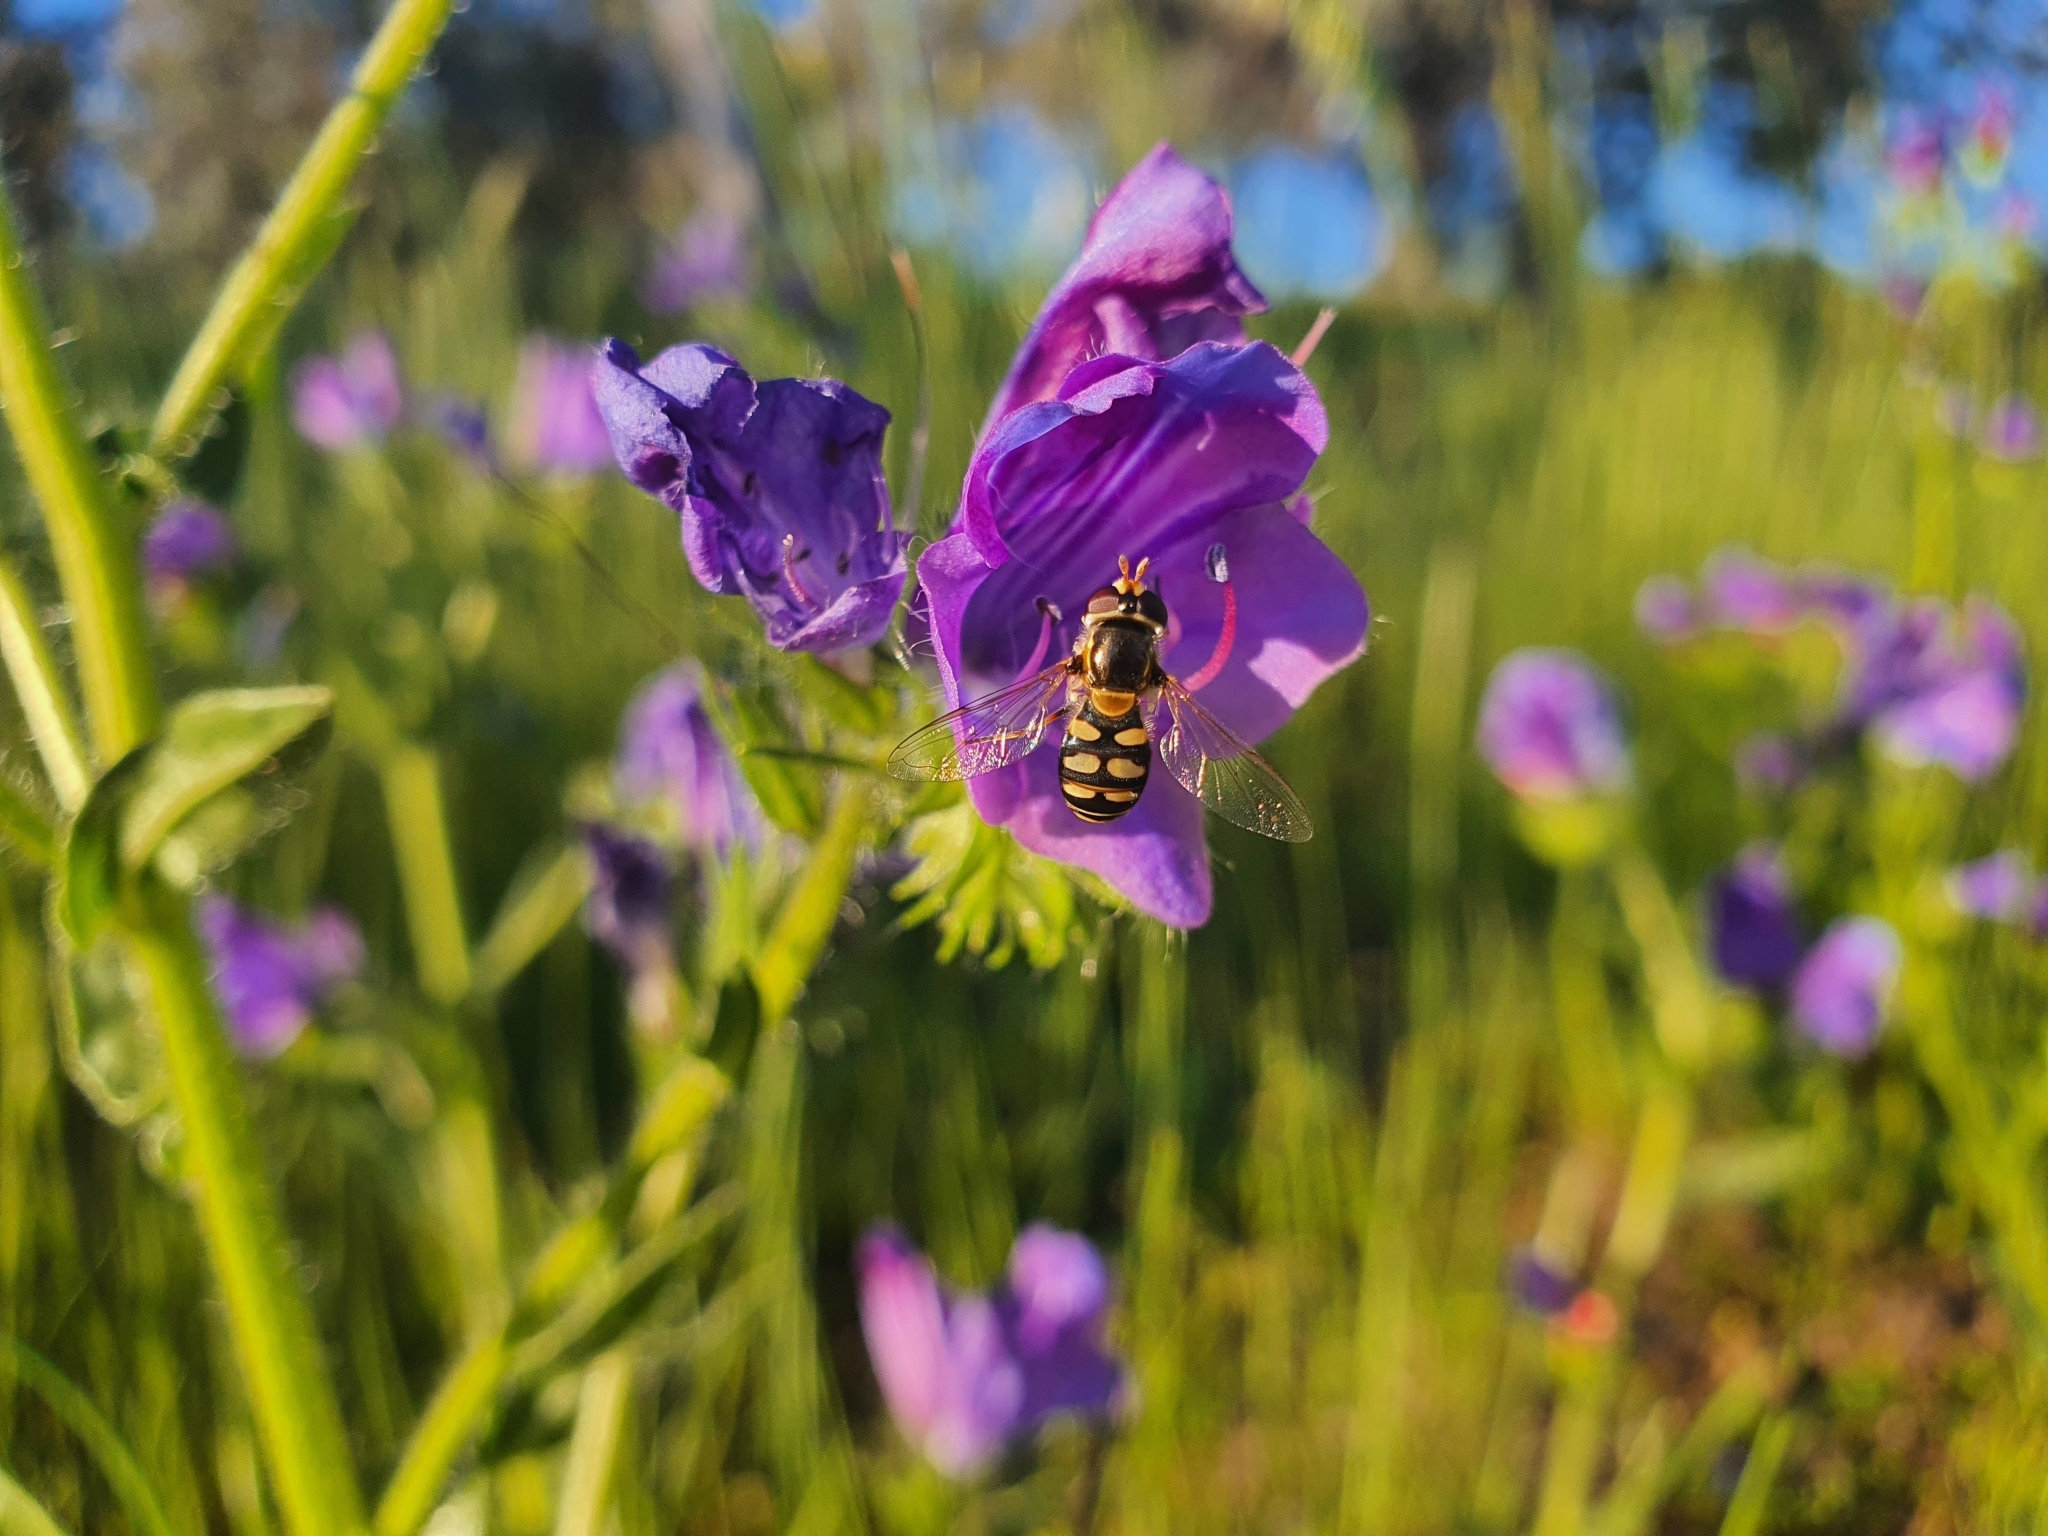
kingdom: Animalia
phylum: Arthropoda
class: Insecta
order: Diptera
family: Syrphidae
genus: Simosyrphus
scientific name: Simosyrphus grandicornis
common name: Hoverfly
